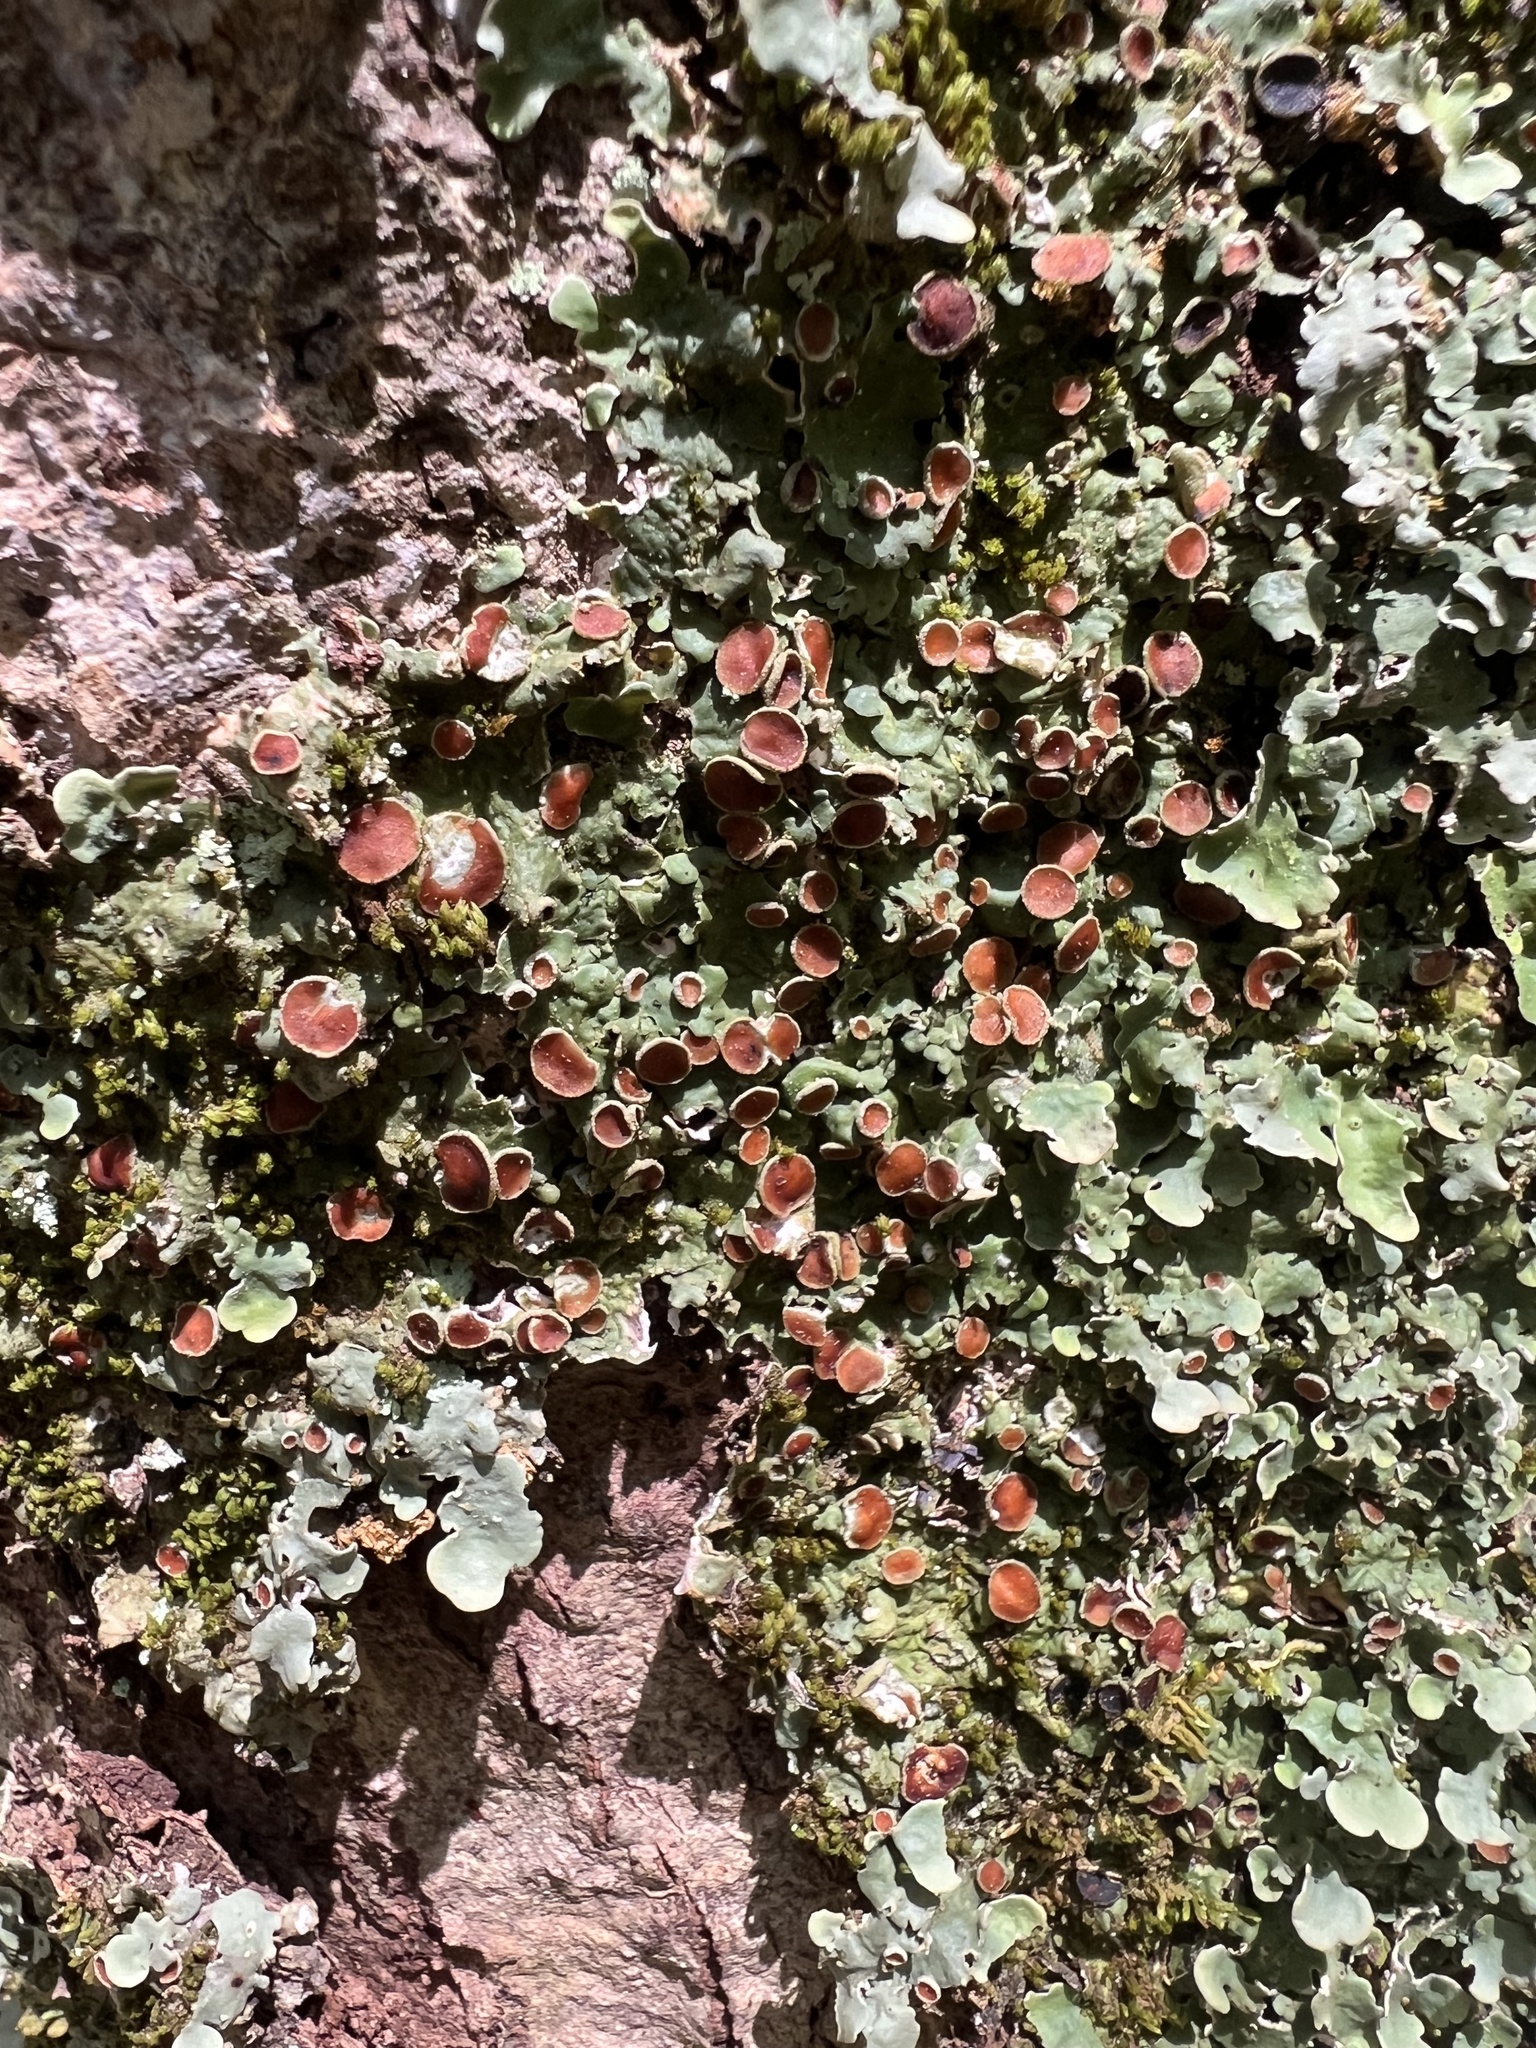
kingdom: Fungi
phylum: Ascomycota
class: Lecanoromycetes
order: Peltigerales
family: Lobariaceae
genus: Ricasolia
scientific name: Ricasolia quercizans
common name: Smooth lungwort
